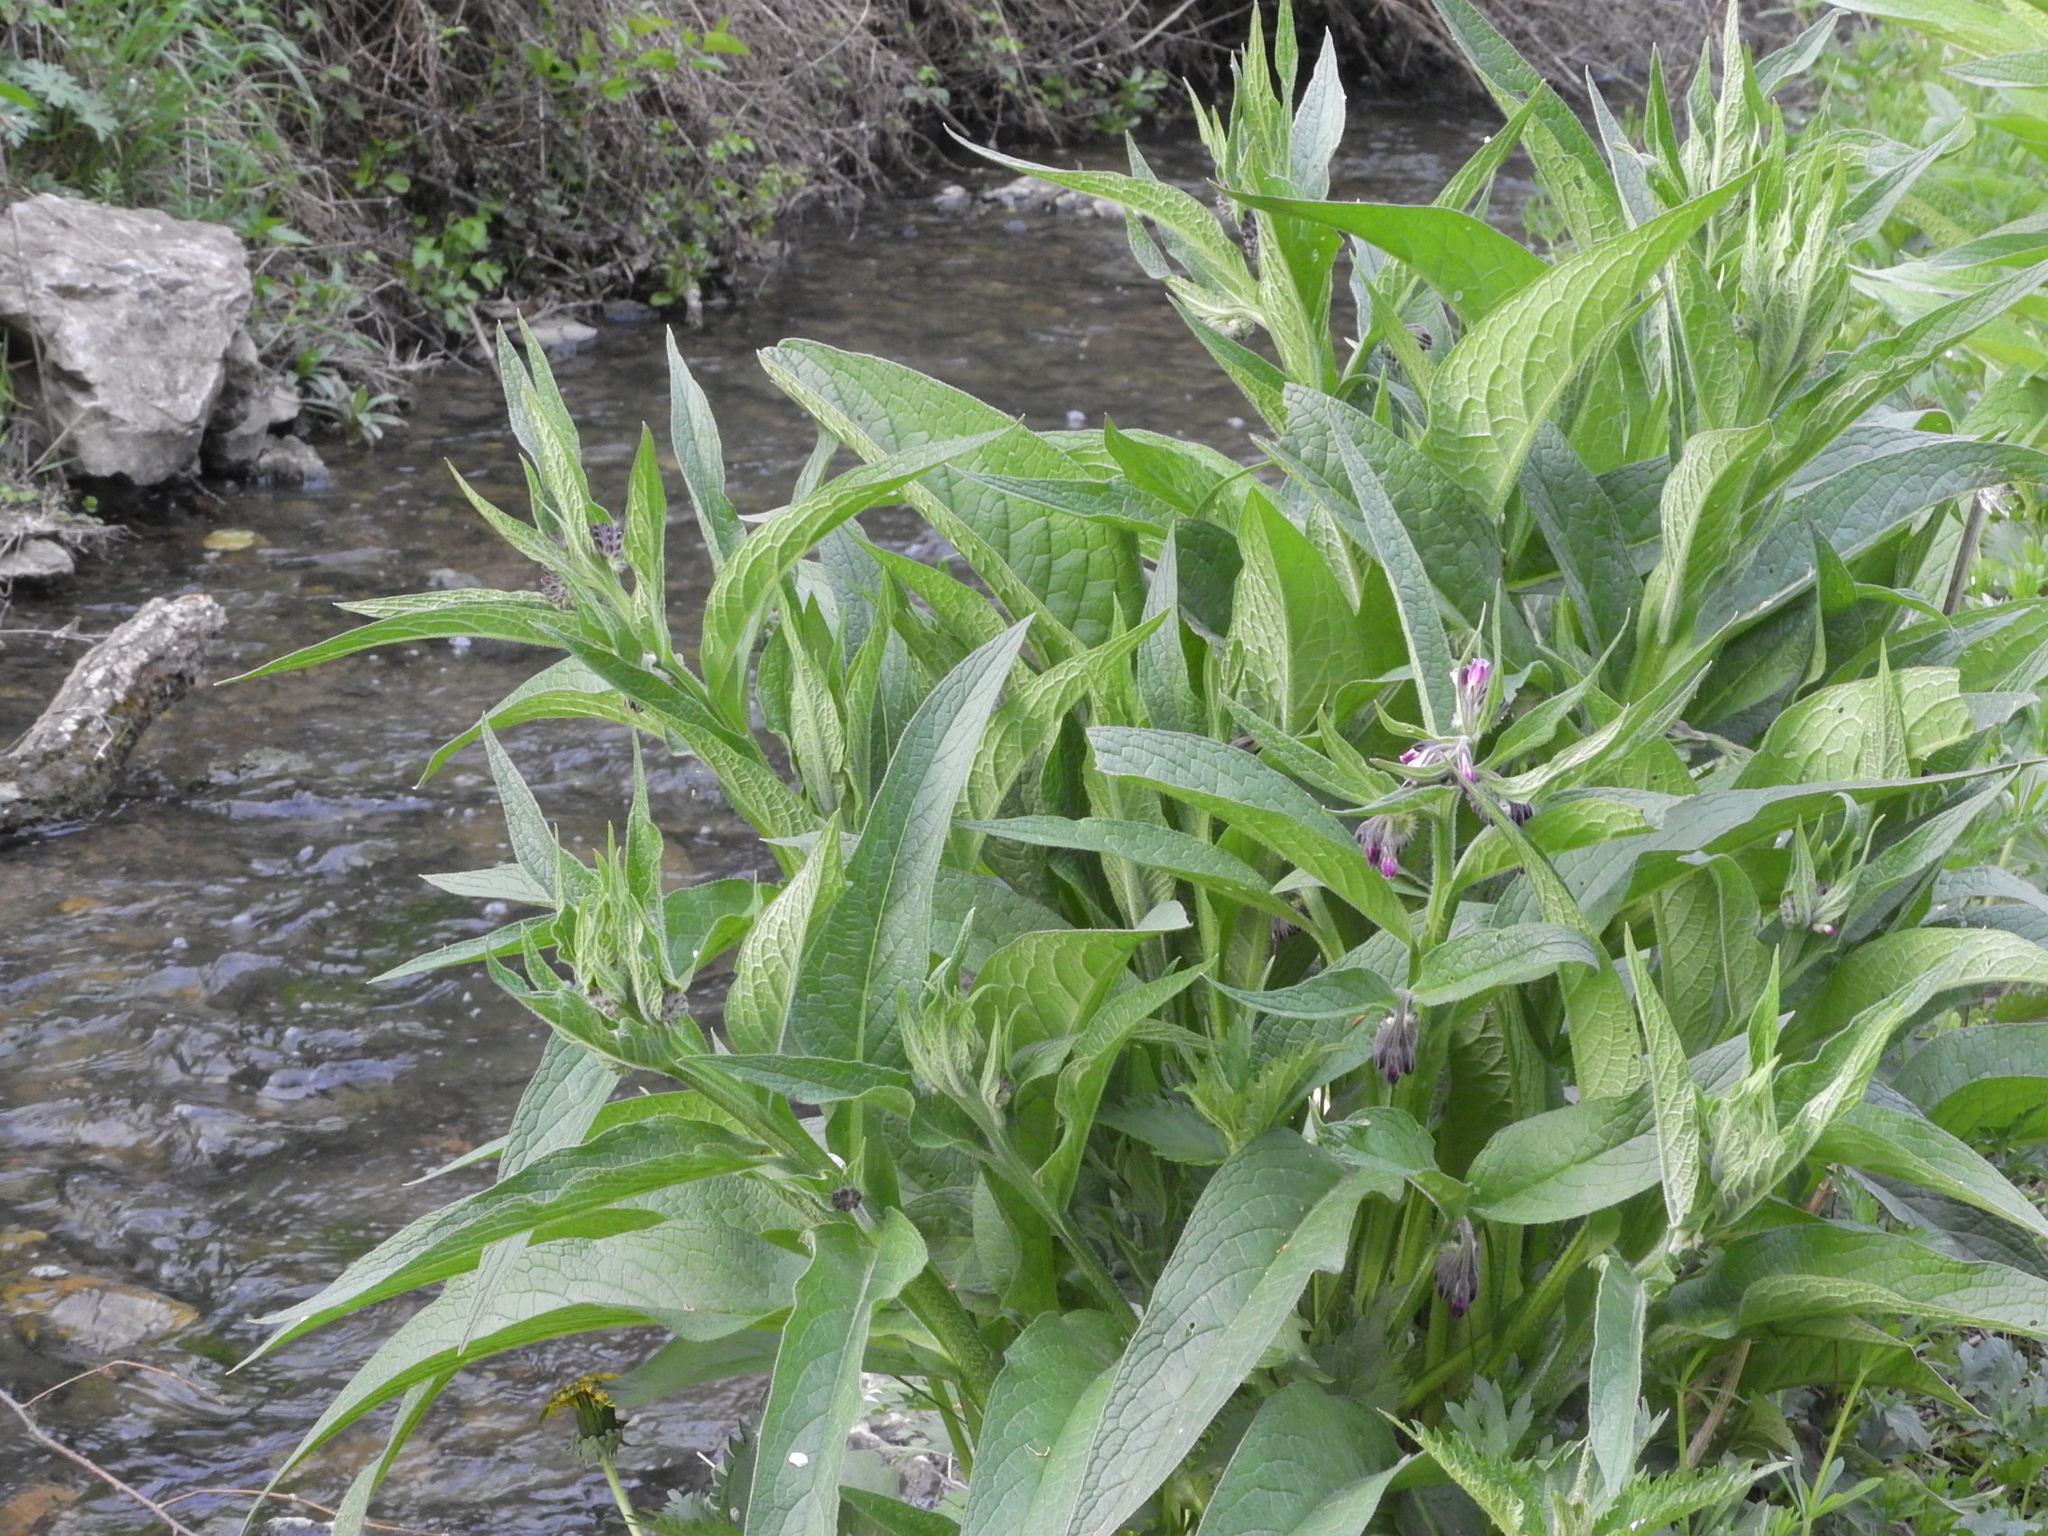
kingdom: Plantae
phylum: Tracheophyta
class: Magnoliopsida
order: Boraginales
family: Boraginaceae
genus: Symphytum
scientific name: Symphytum officinale
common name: Common comfrey
